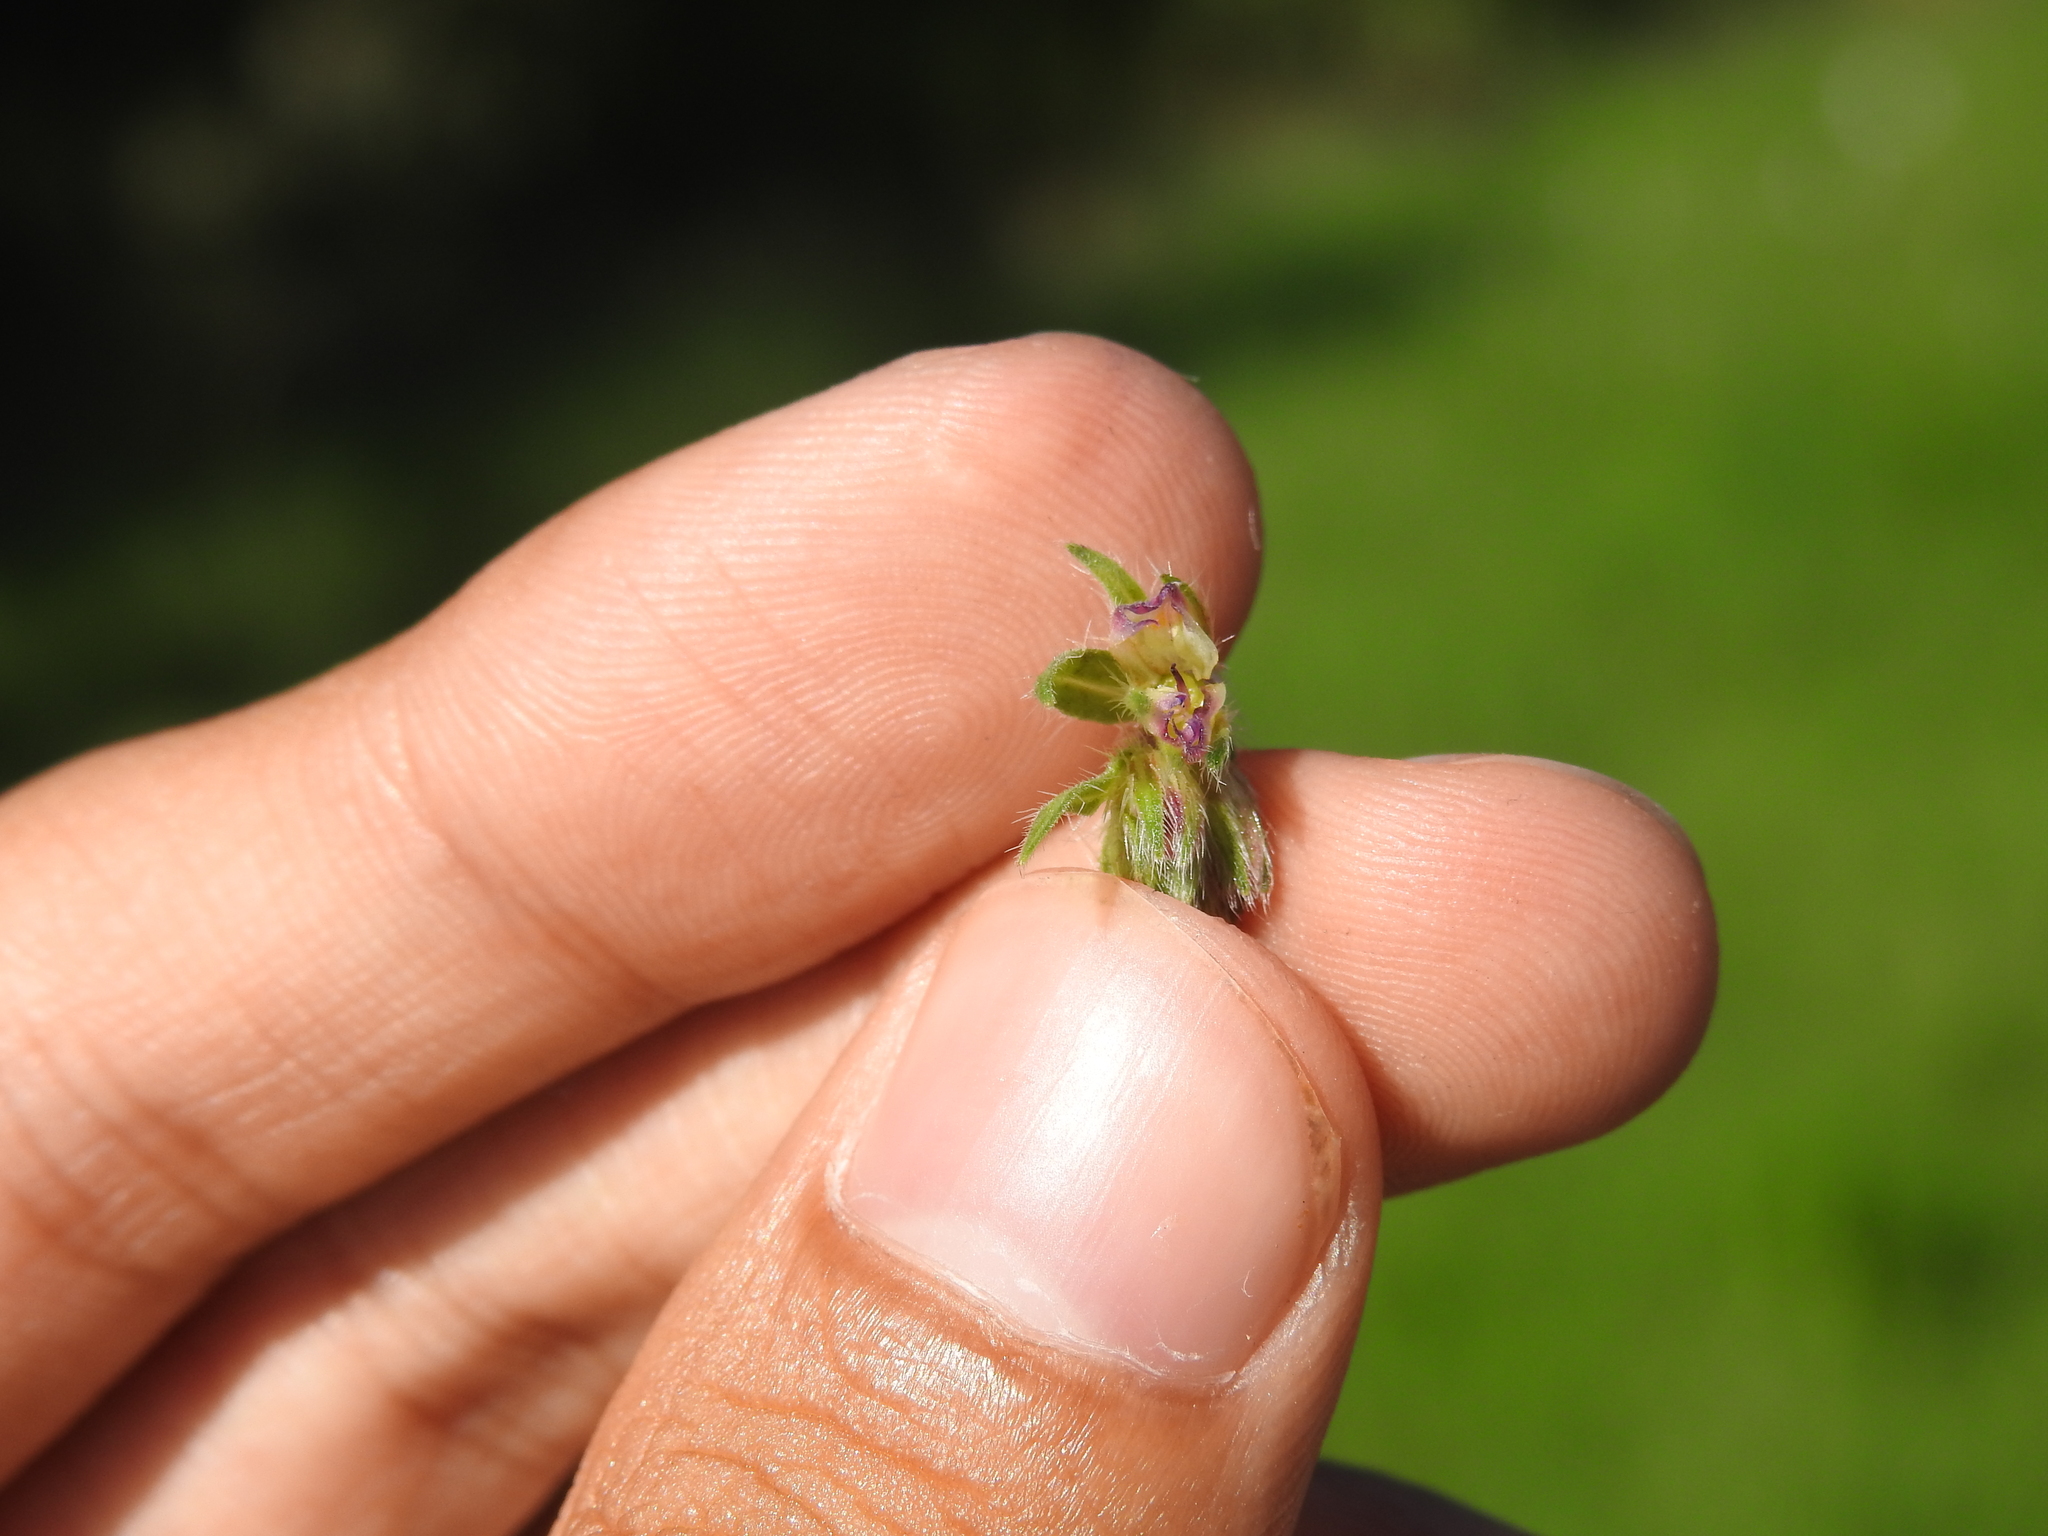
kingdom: Animalia
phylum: Arthropoda
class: Insecta
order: Diptera
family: Cecidomyiidae
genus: Contarinia
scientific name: Contarinia echii
